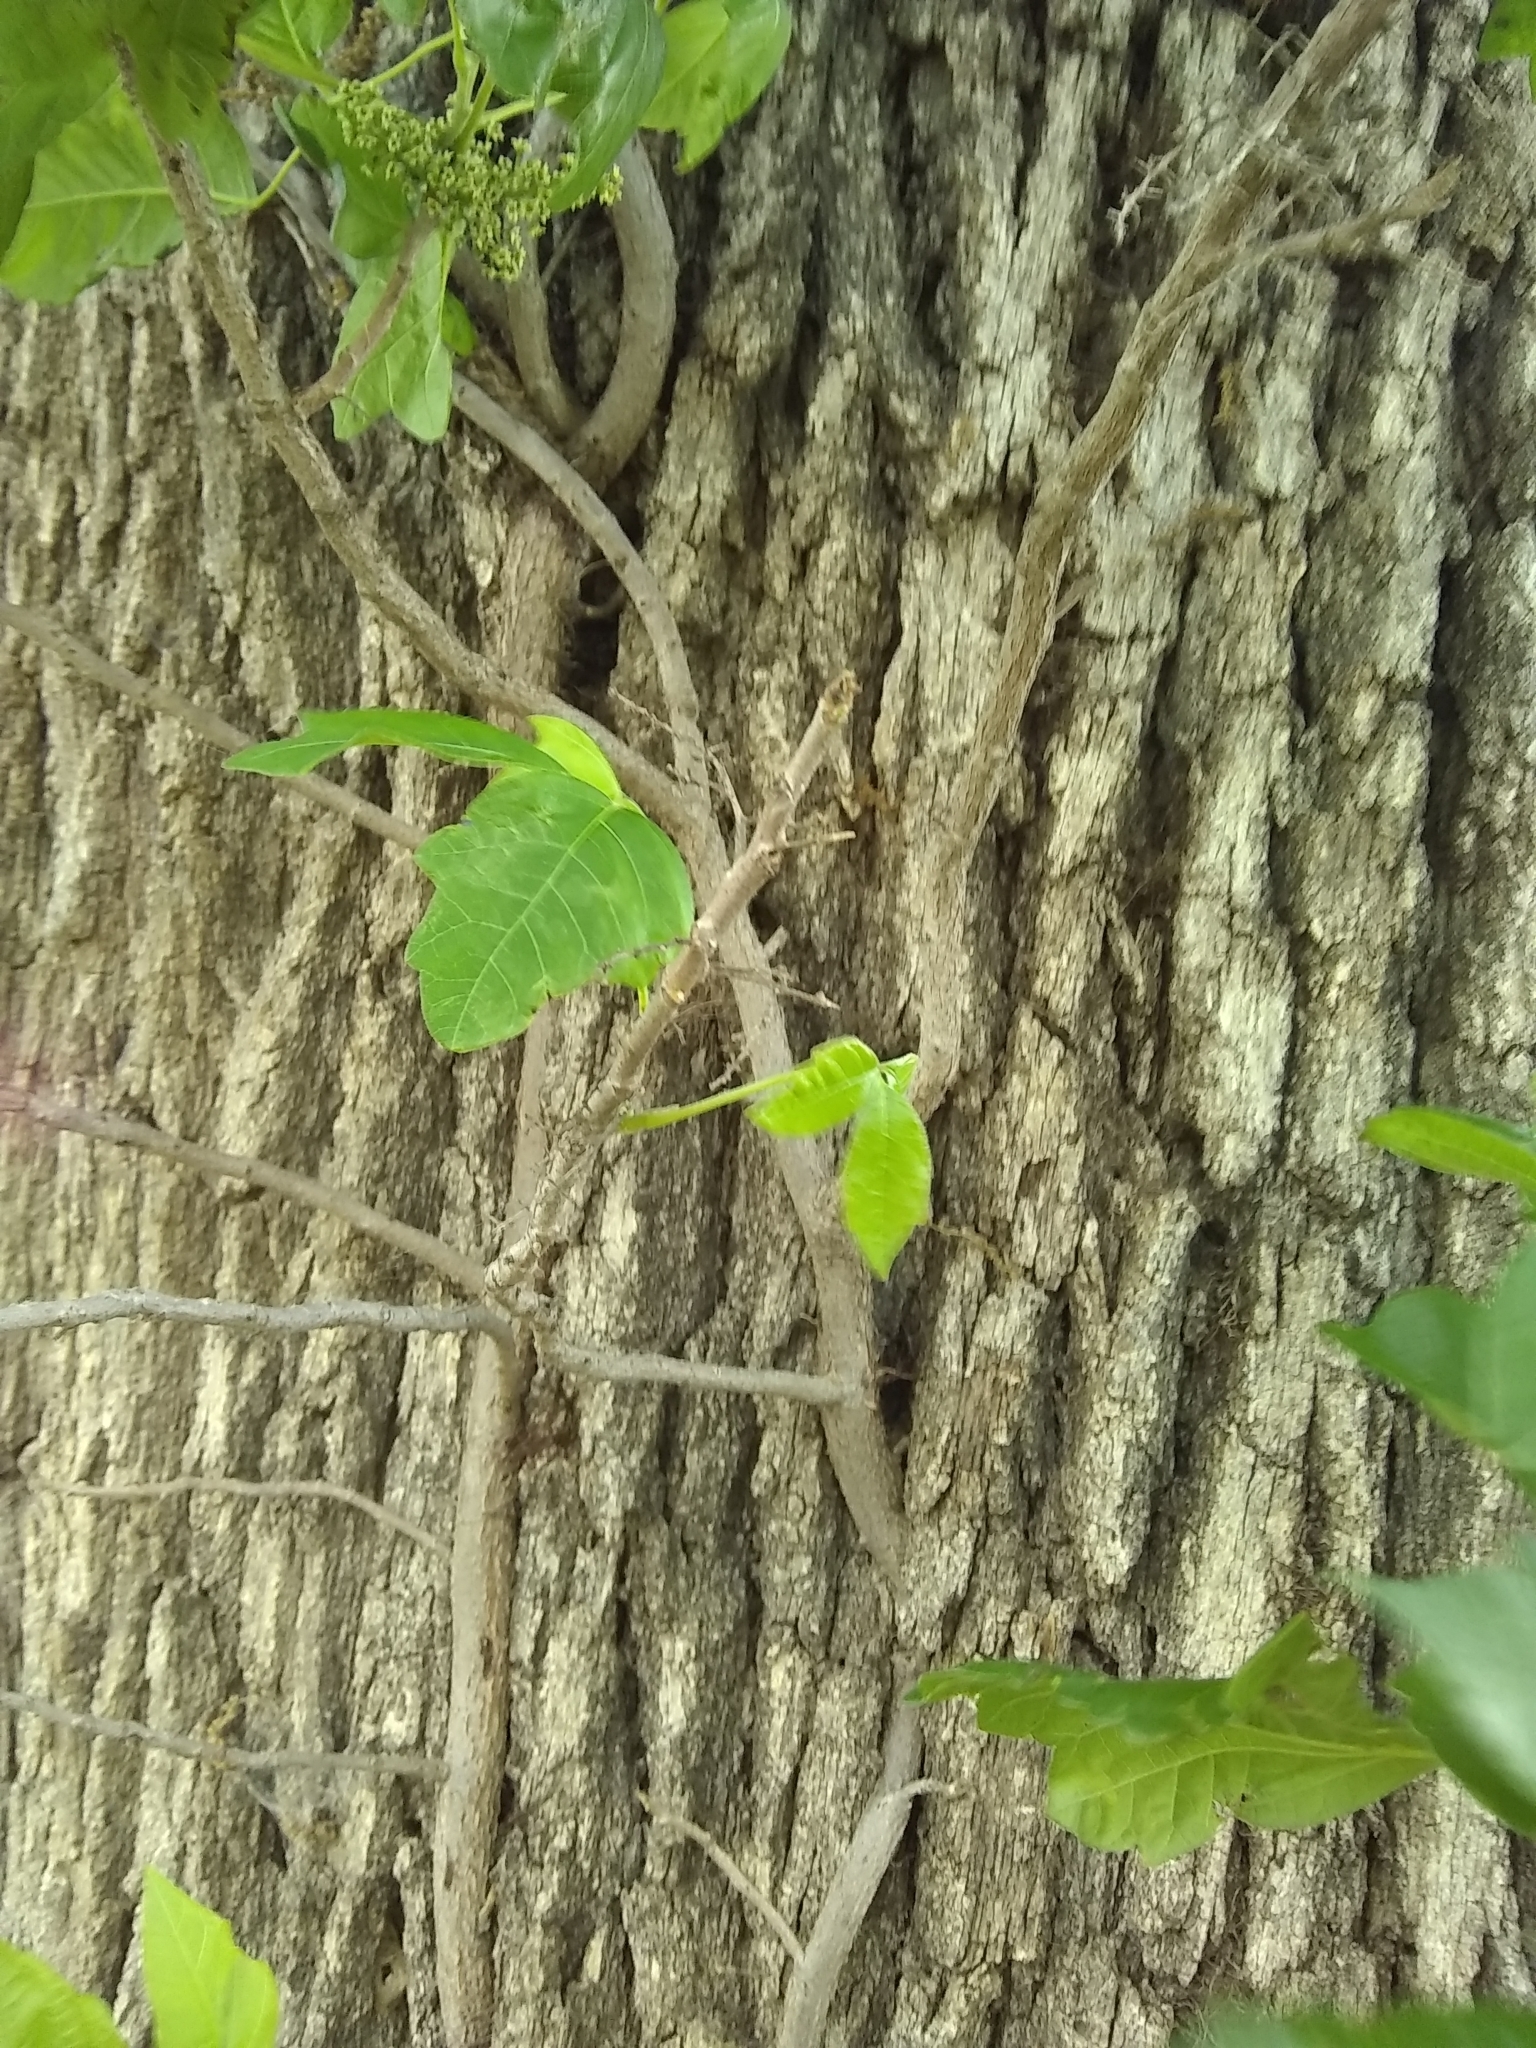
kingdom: Plantae
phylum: Tracheophyta
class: Magnoliopsida
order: Sapindales
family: Anacardiaceae
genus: Toxicodendron
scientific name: Toxicodendron radicans
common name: Poison ivy
